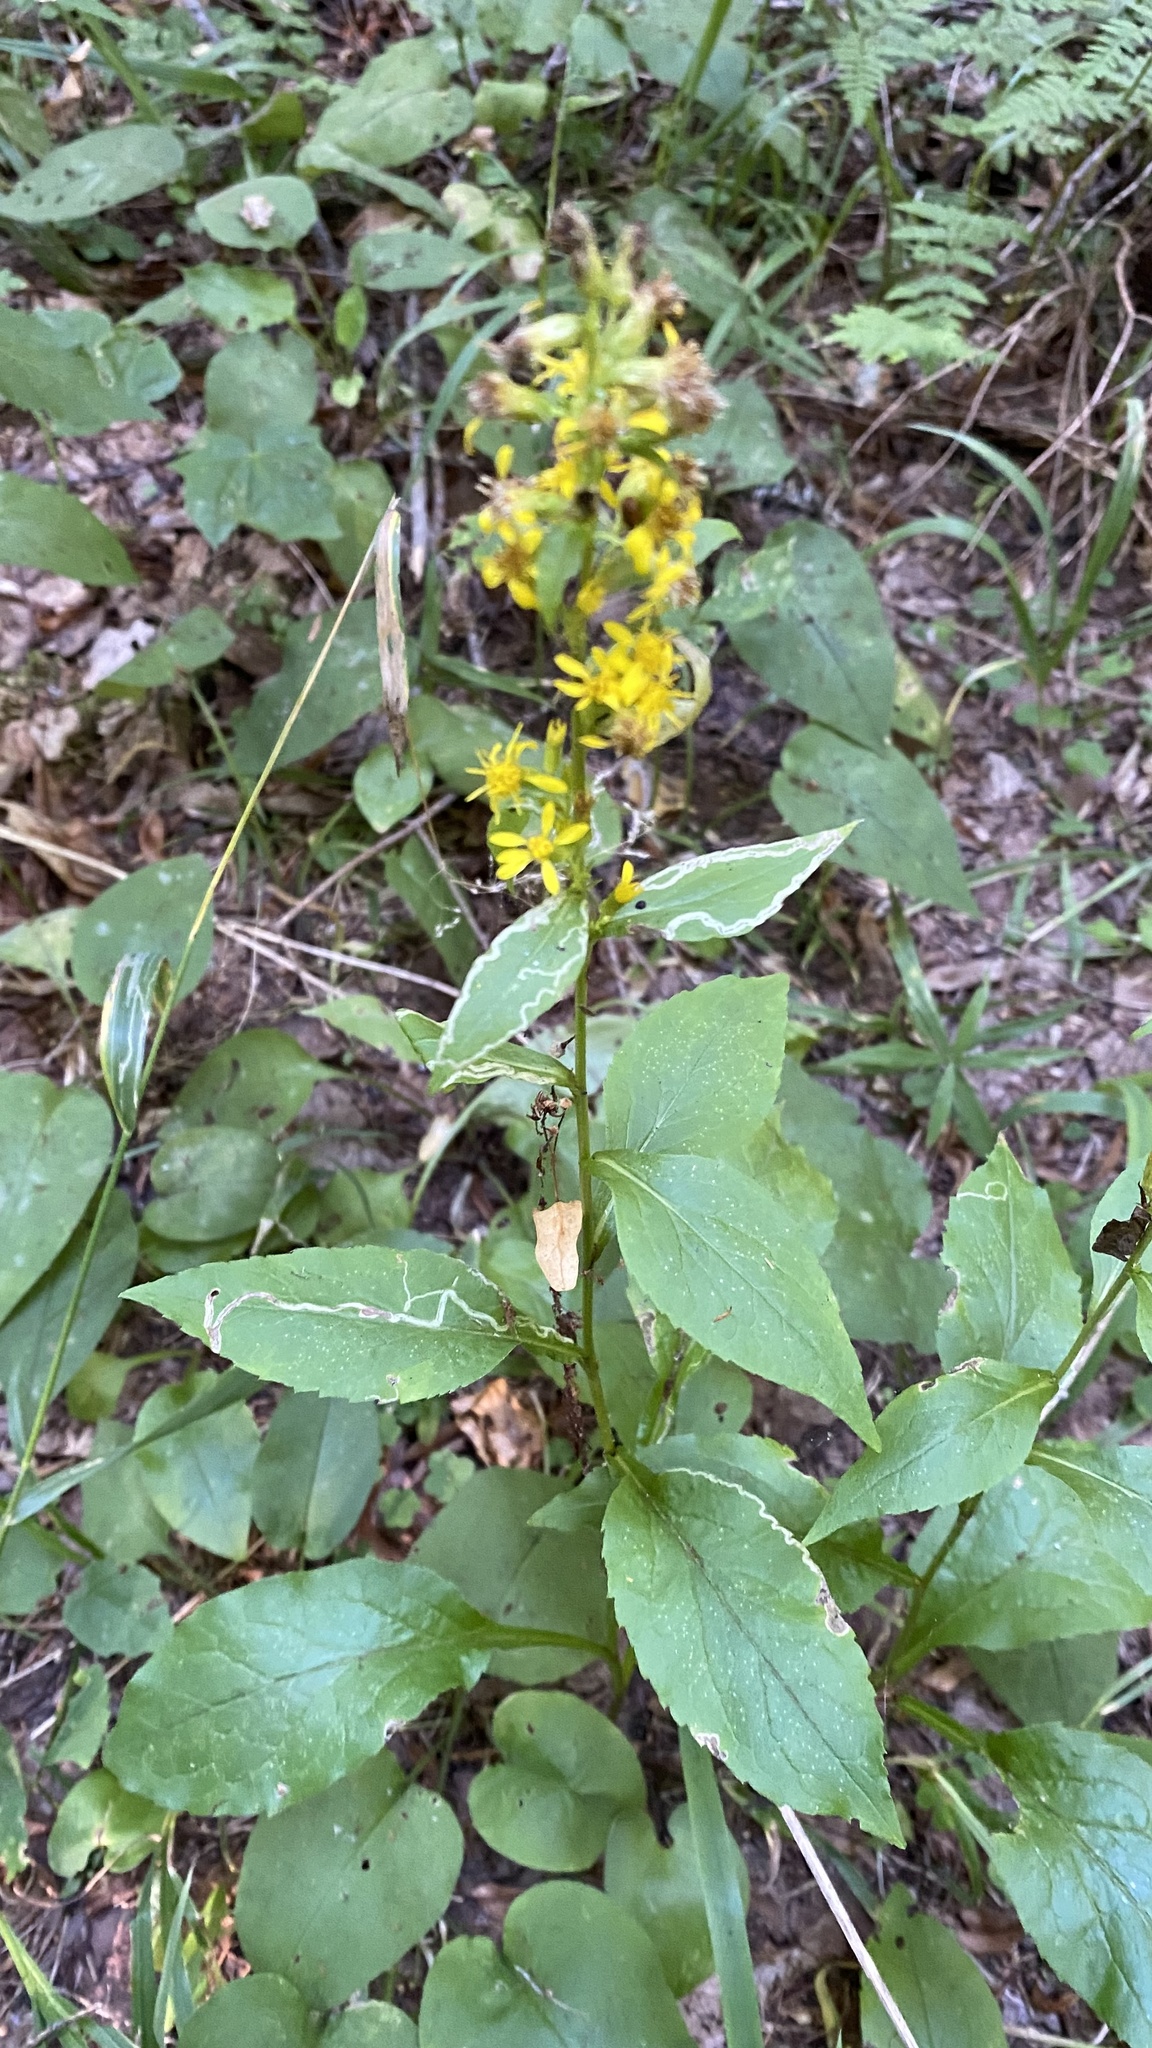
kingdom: Plantae
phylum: Tracheophyta
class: Magnoliopsida
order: Asterales
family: Asteraceae
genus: Solidago
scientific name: Solidago virgaurea
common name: Goldenrod
